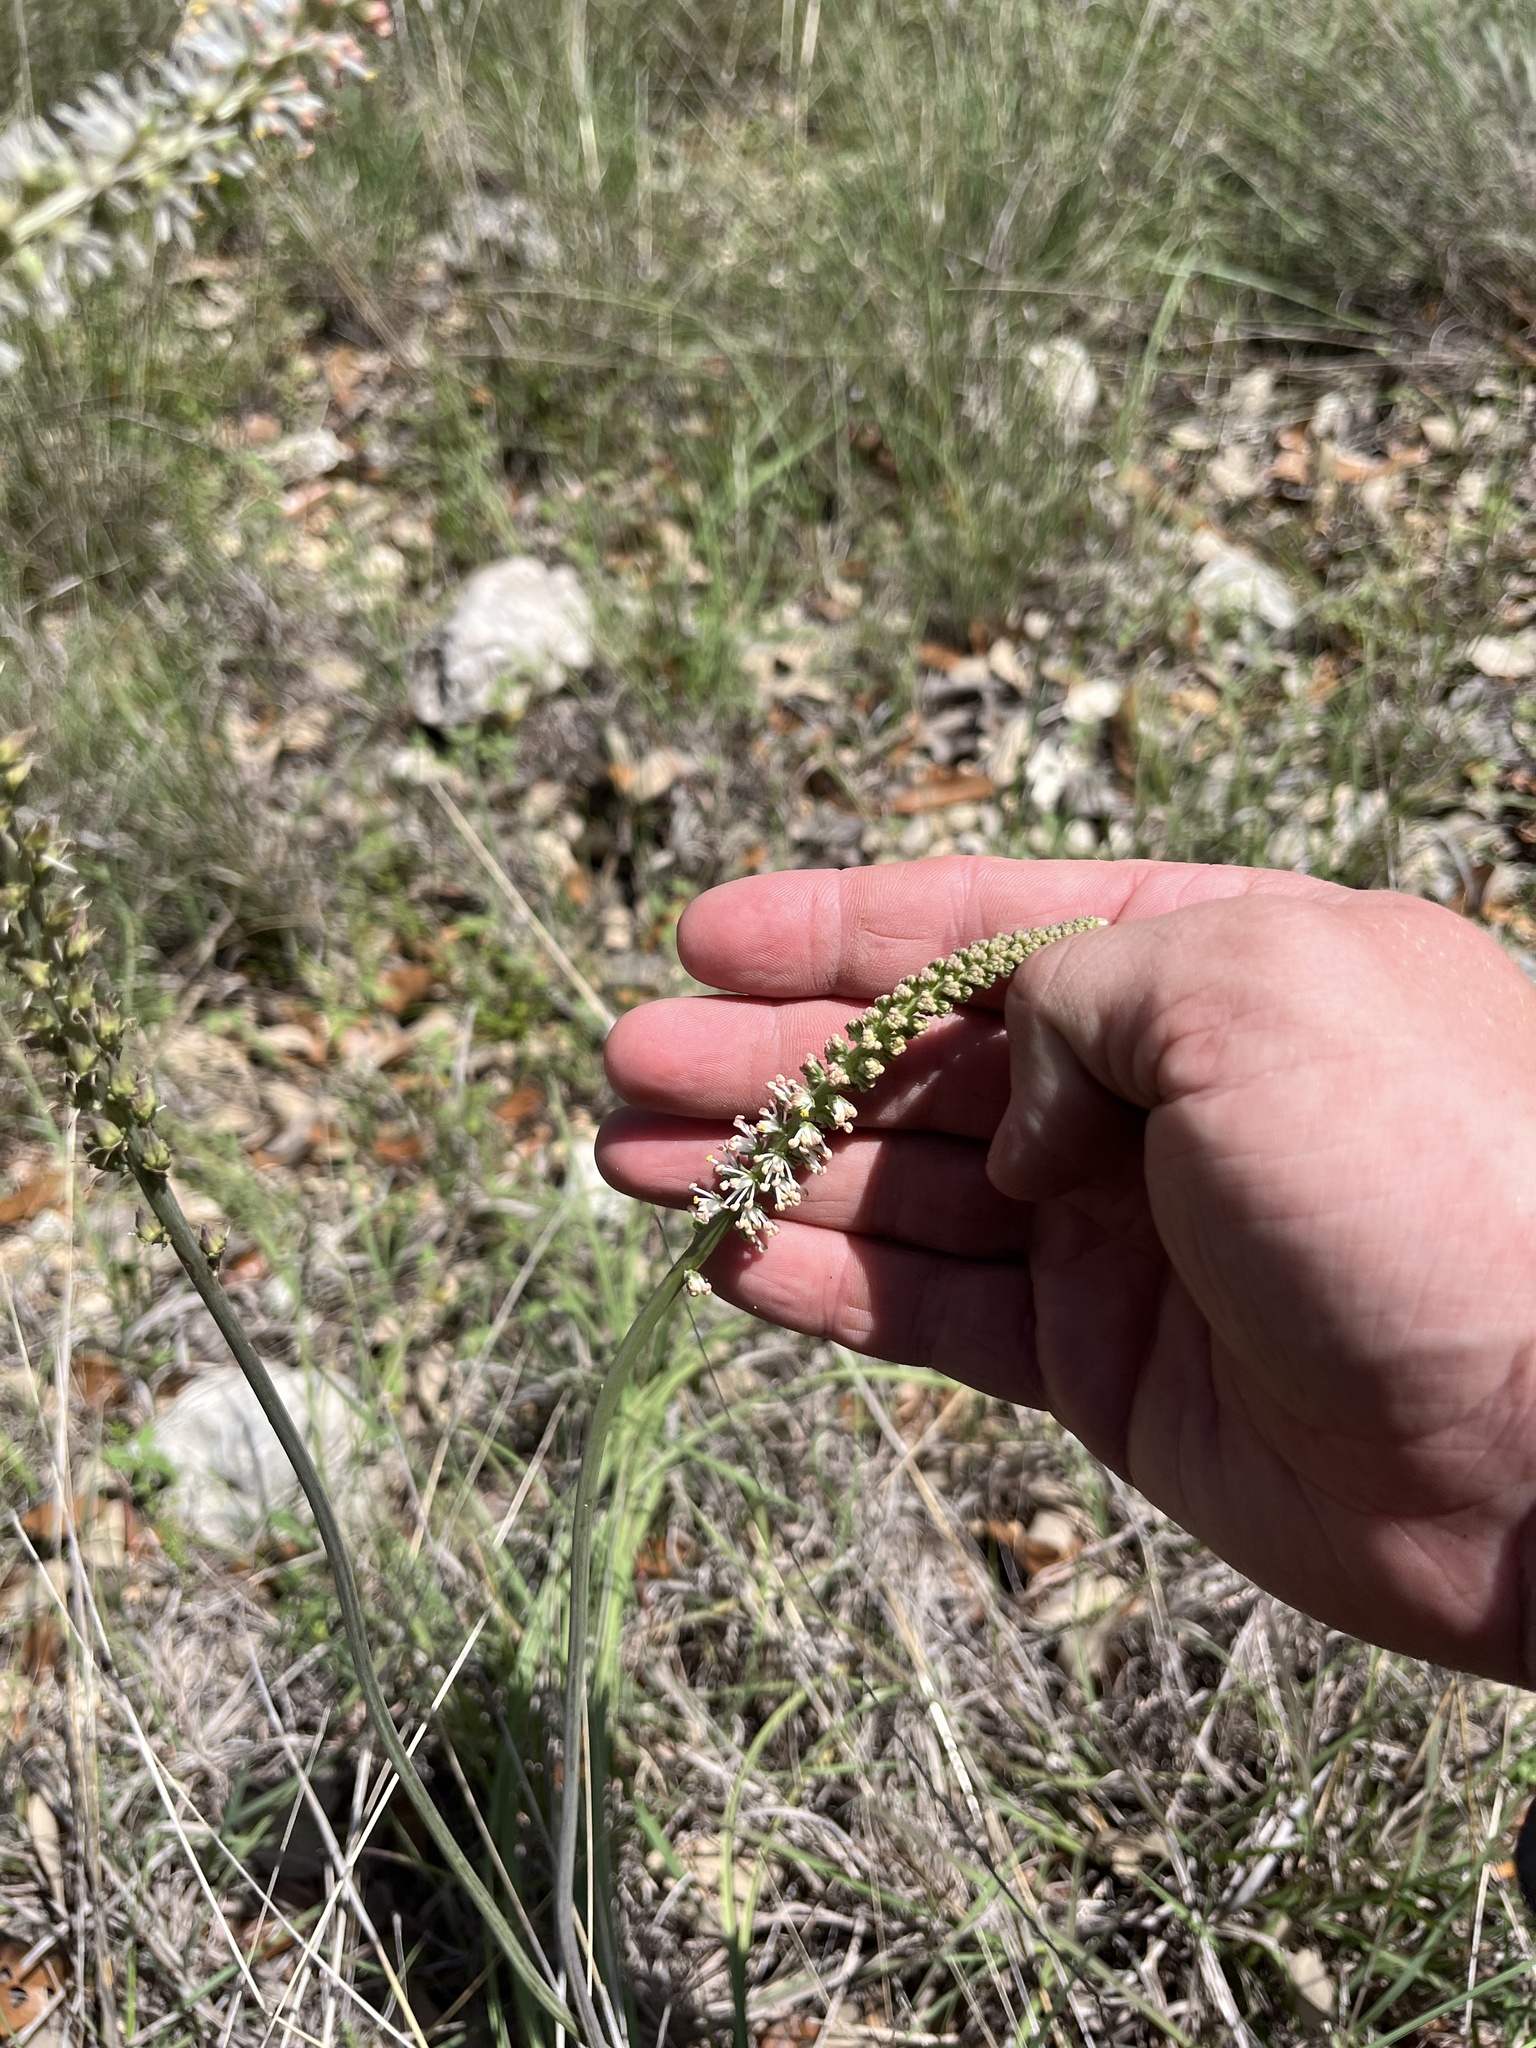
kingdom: Plantae
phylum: Tracheophyta
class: Liliopsida
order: Liliales
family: Melanthiaceae
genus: Schoenocaulon
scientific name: Schoenocaulon texanum
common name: Texas feather-shank
